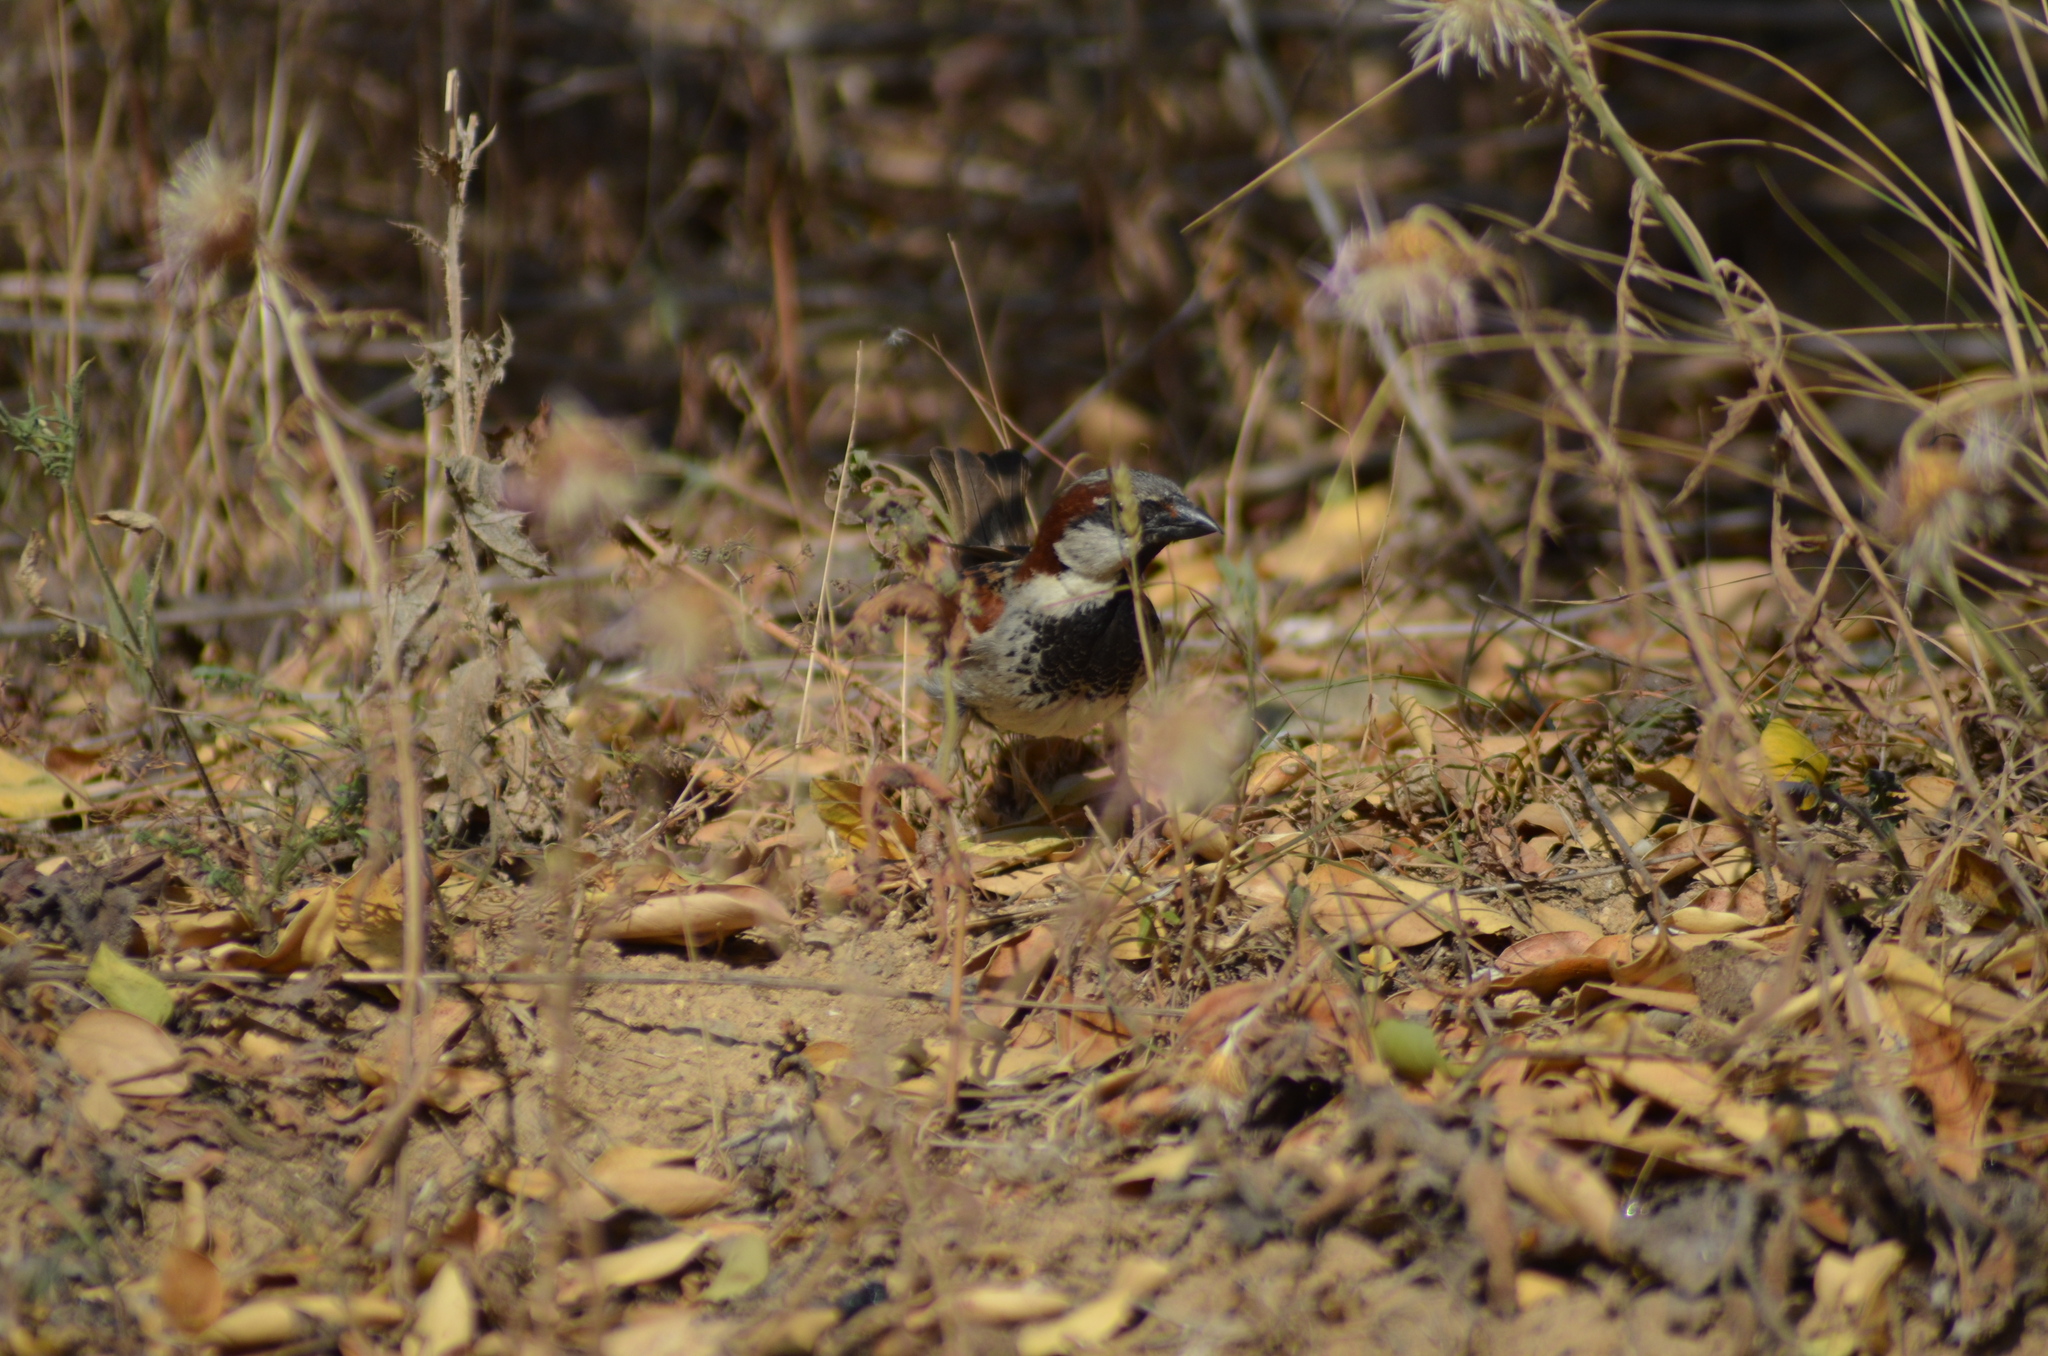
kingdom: Animalia
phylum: Chordata
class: Aves
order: Passeriformes
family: Passeridae
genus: Passer
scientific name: Passer domesticus
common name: House sparrow
